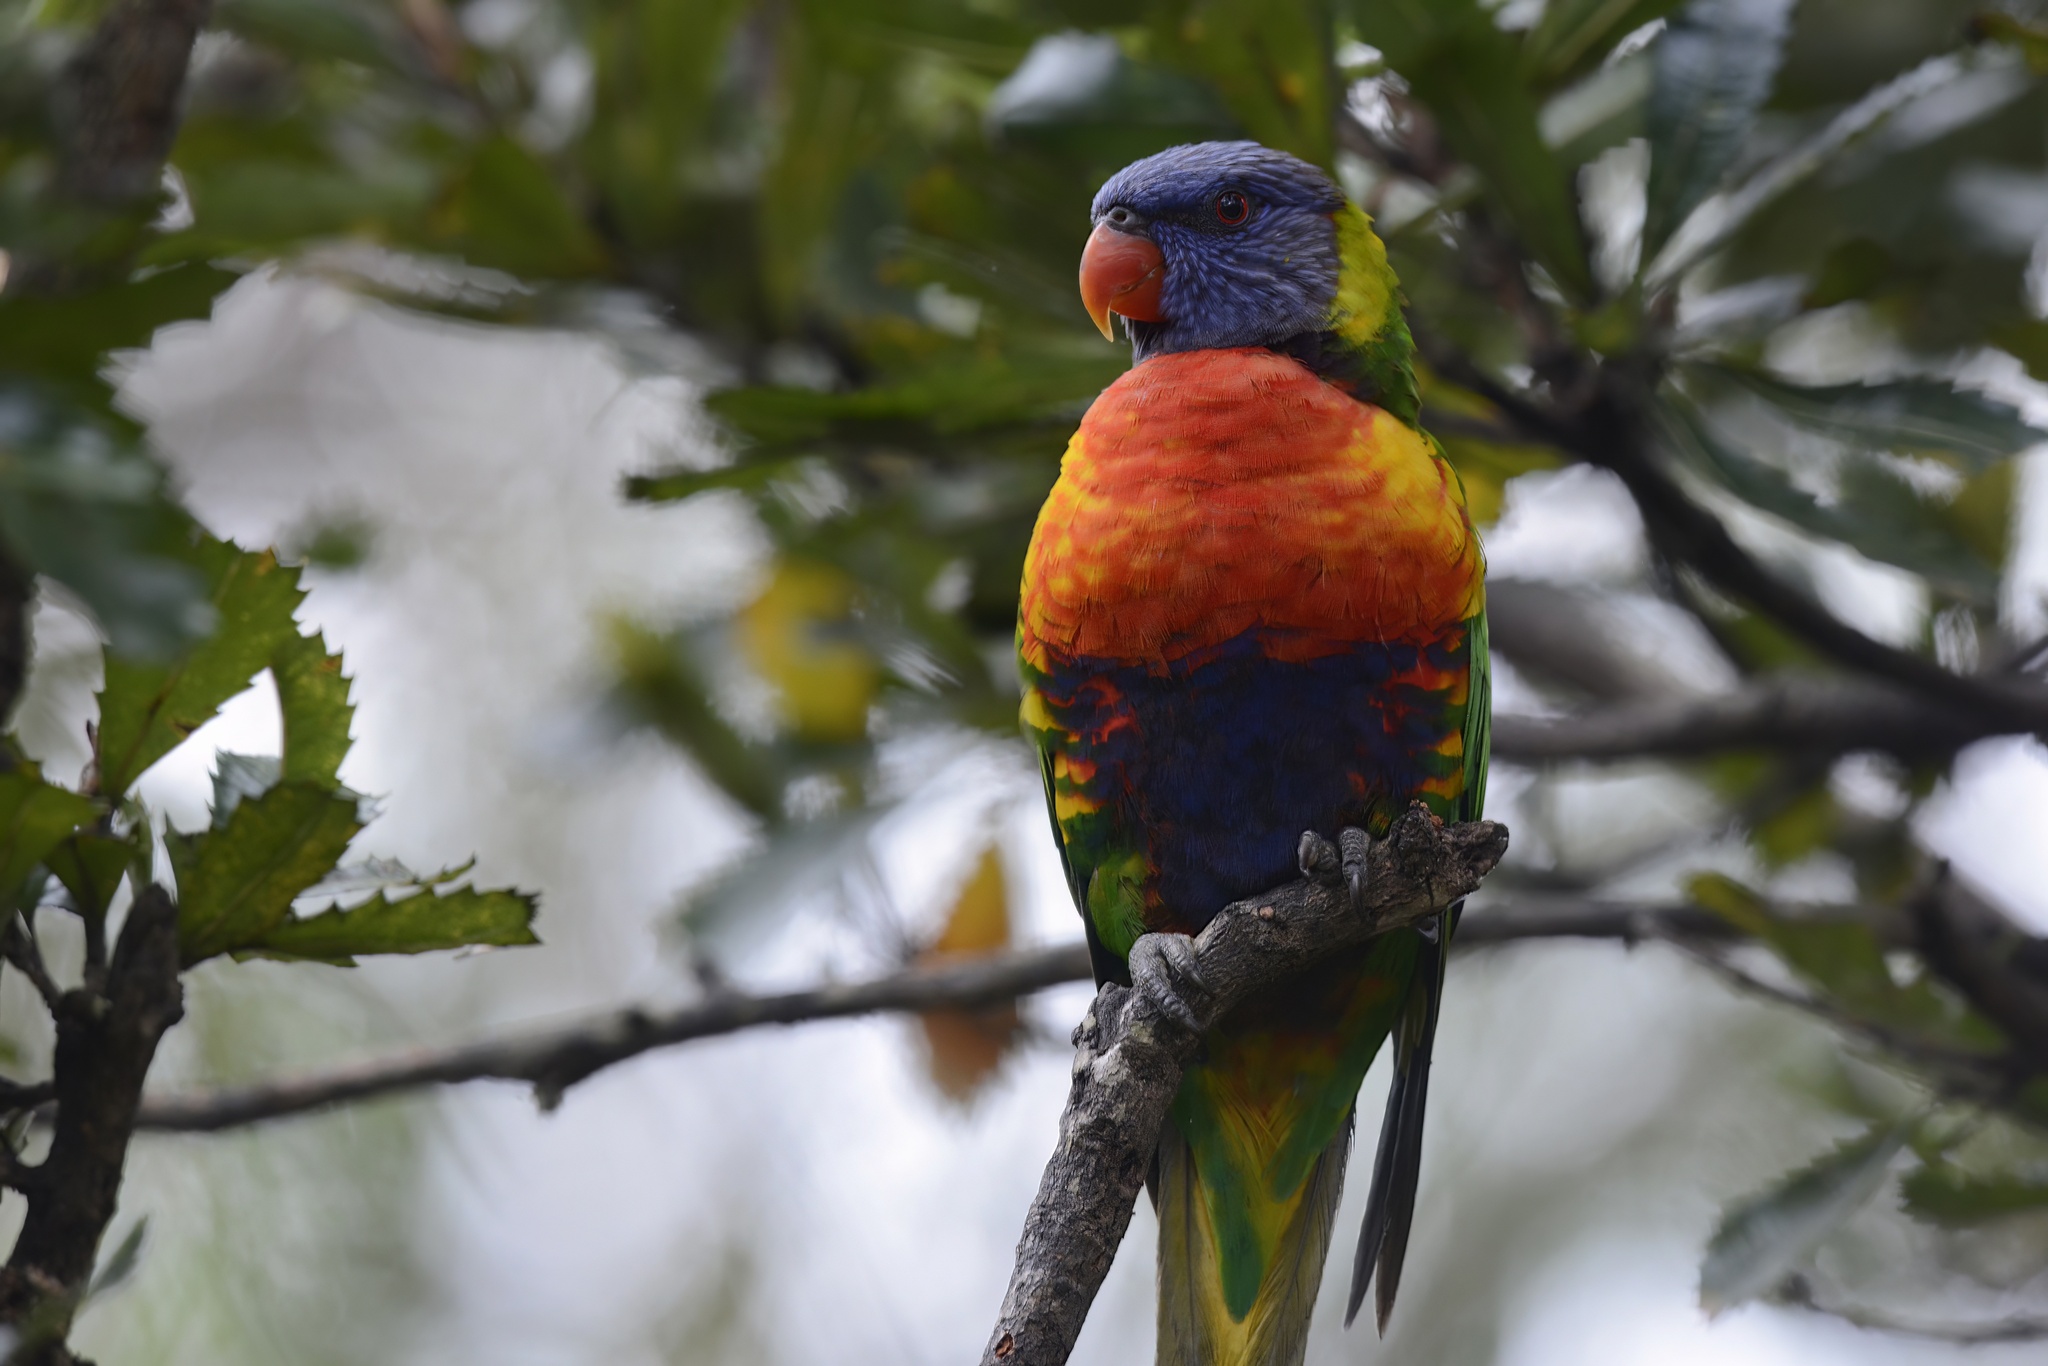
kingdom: Animalia
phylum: Chordata
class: Aves
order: Psittaciformes
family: Psittacidae
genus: Trichoglossus
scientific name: Trichoglossus haematodus
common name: Coconut lorikeet
